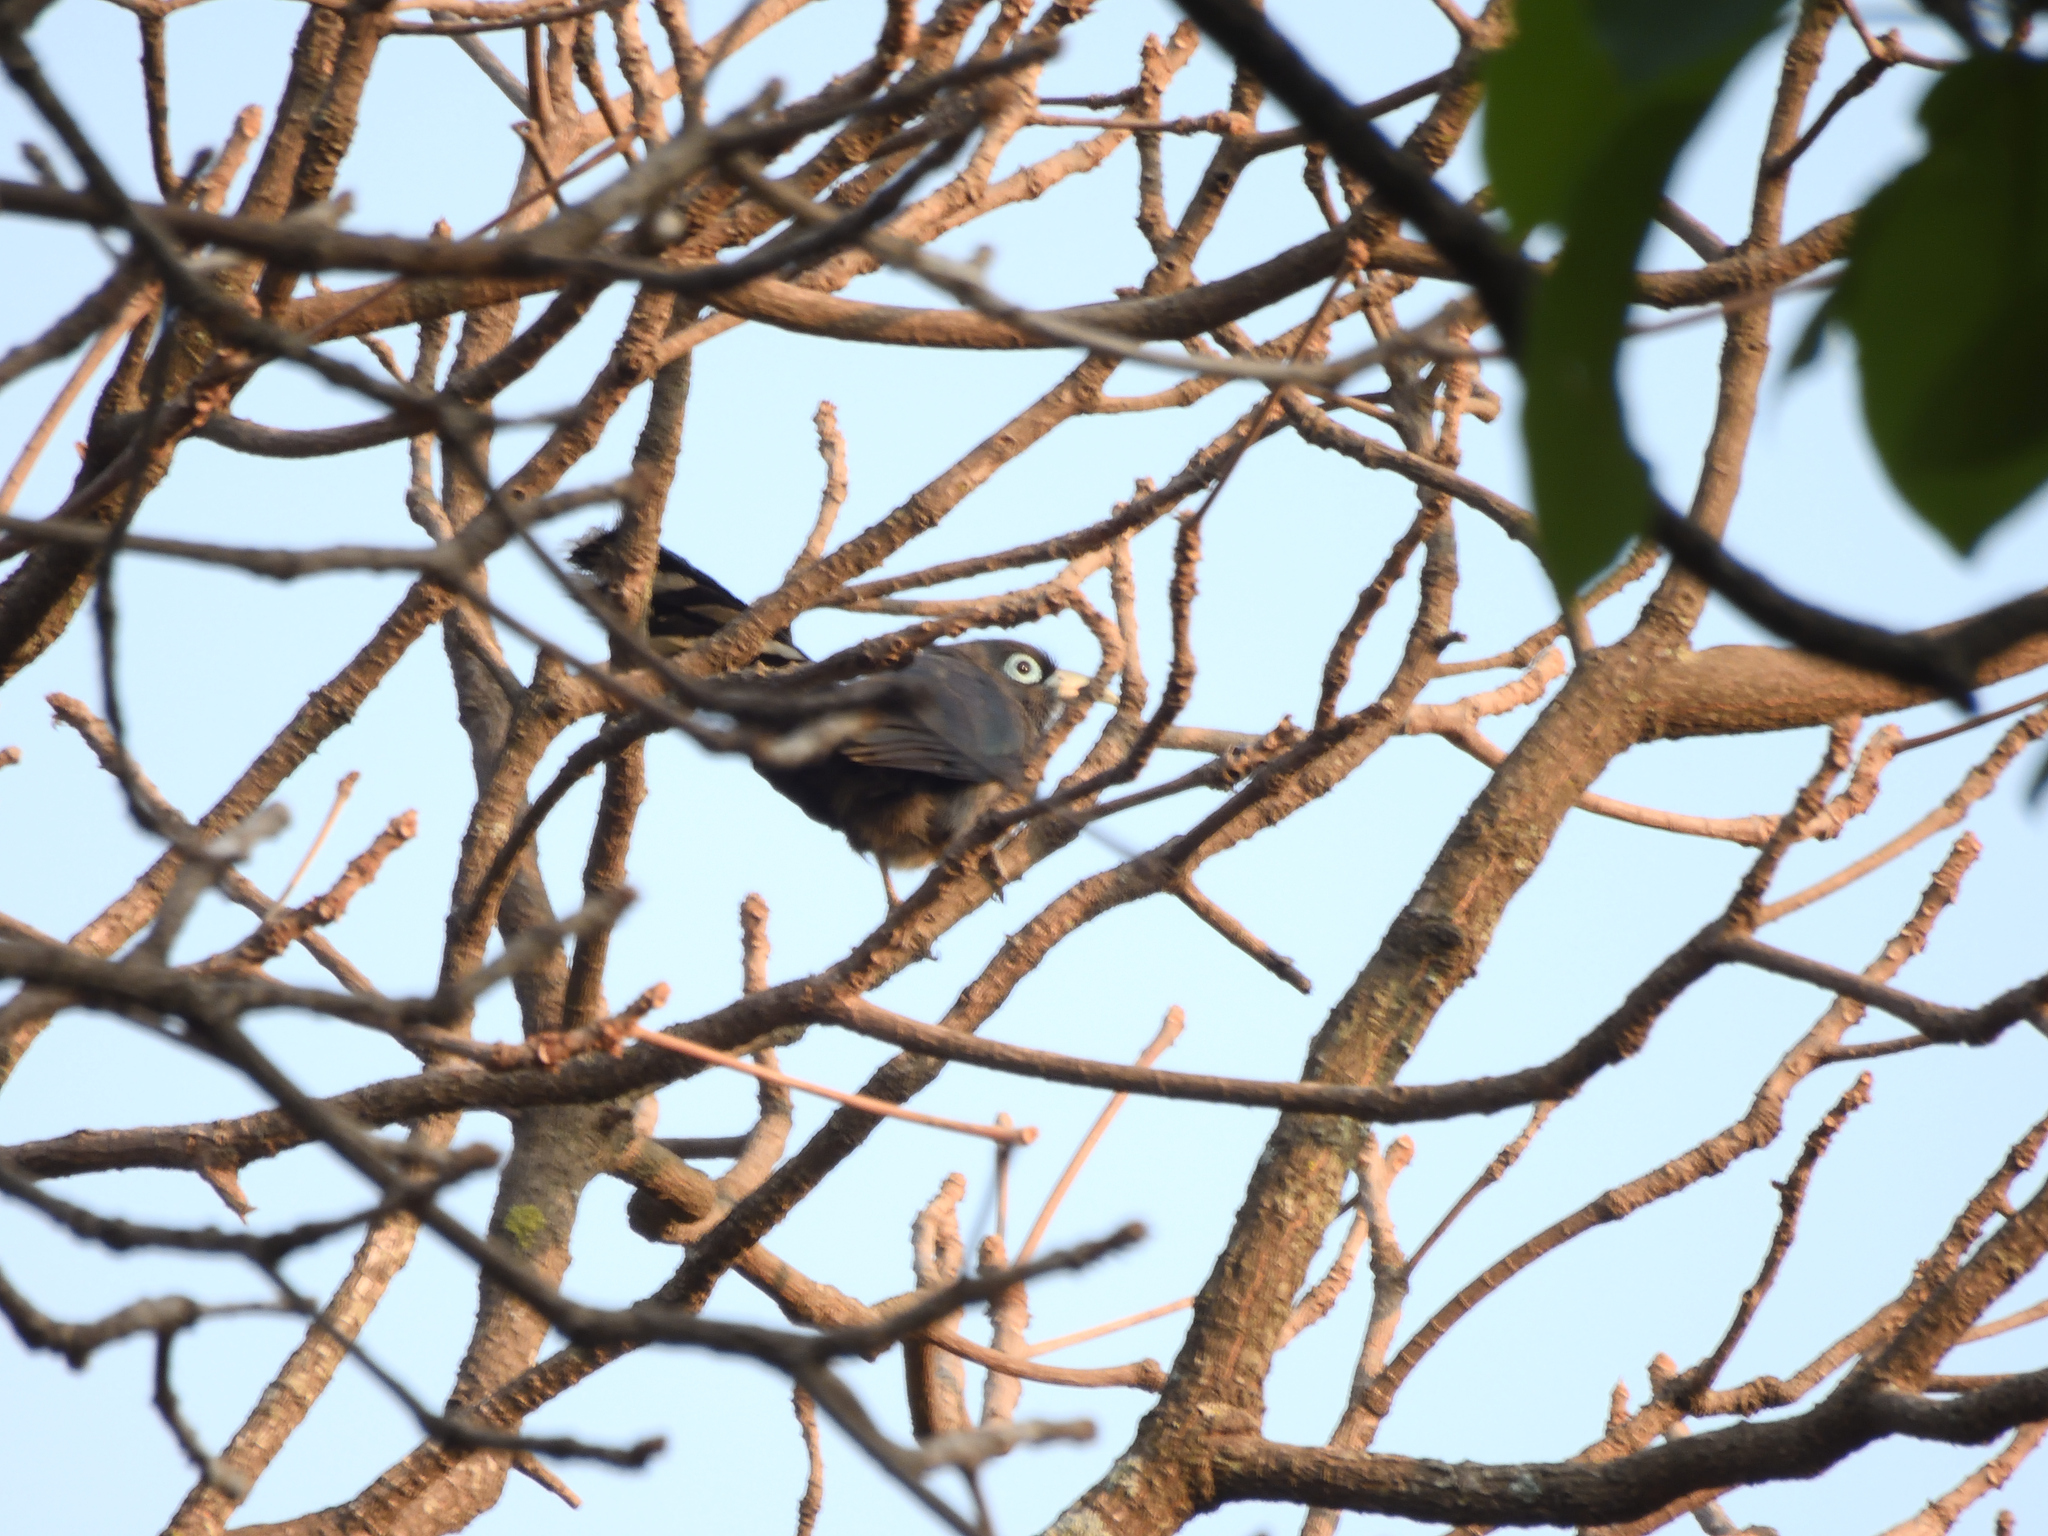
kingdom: Animalia
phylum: Chordata
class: Aves
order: Cuculiformes
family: Cuculidae
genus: Rhopodytes
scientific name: Rhopodytes viridirostris
